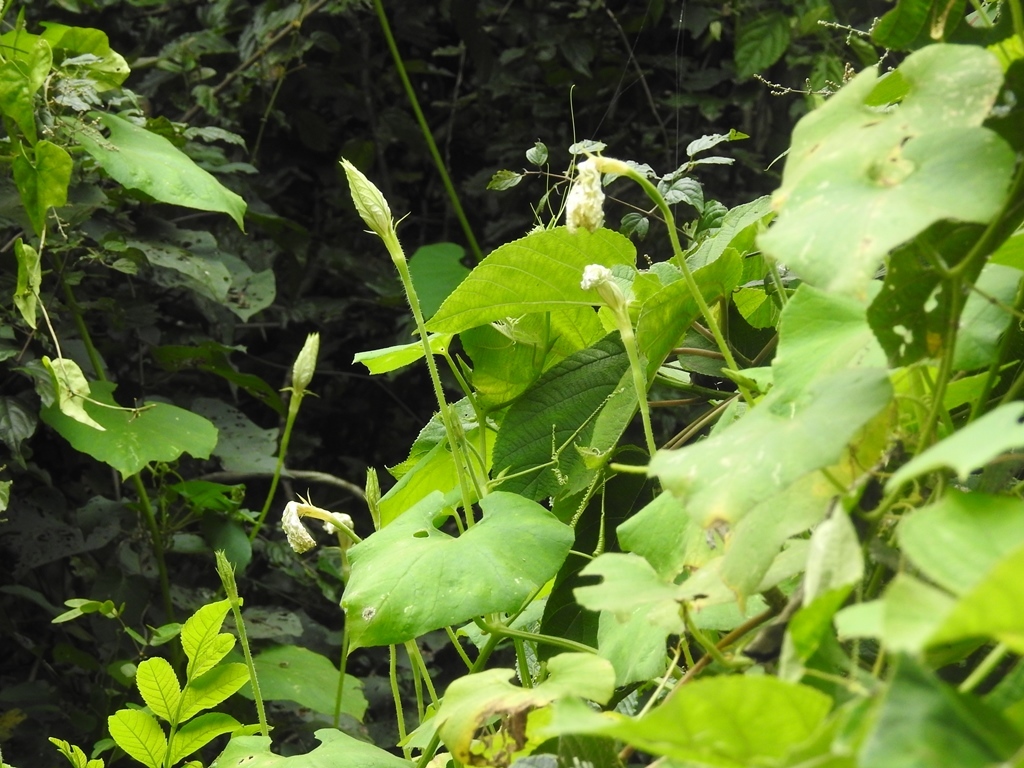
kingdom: Plantae
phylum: Tracheophyta
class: Magnoliopsida
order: Cucurbitales
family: Cucurbitaceae
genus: Lagenaria
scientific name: Lagenaria siceraria
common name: Bottle gourd
